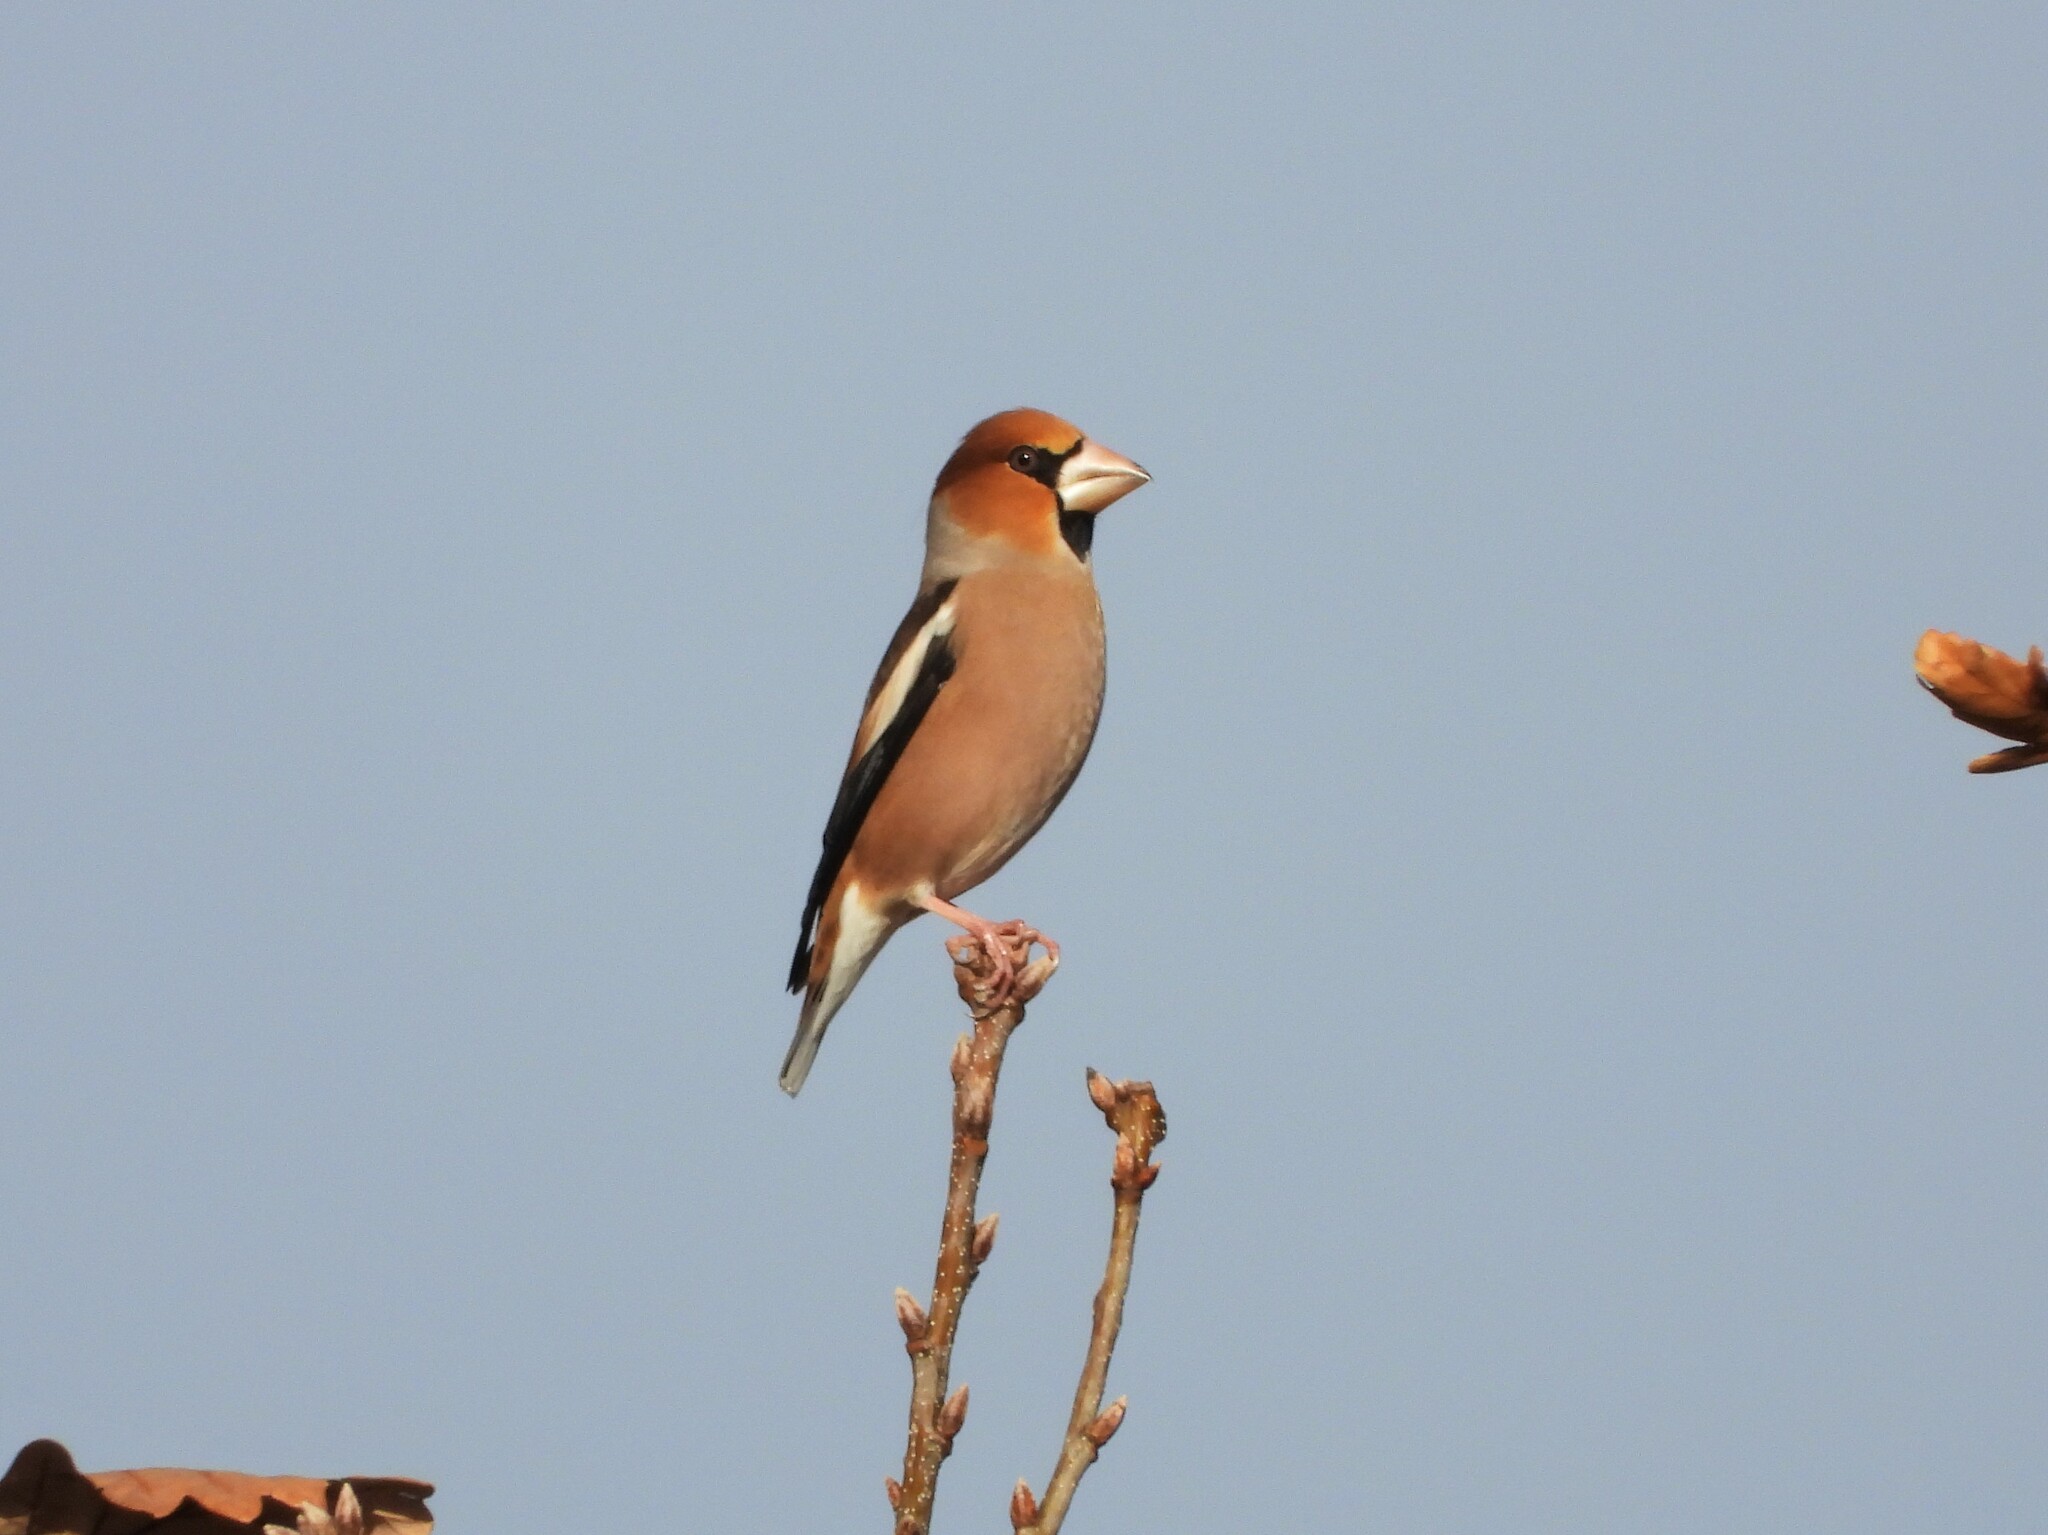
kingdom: Animalia
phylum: Chordata
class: Aves
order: Passeriformes
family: Fringillidae
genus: Coccothraustes
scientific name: Coccothraustes coccothraustes
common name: Hawfinch
